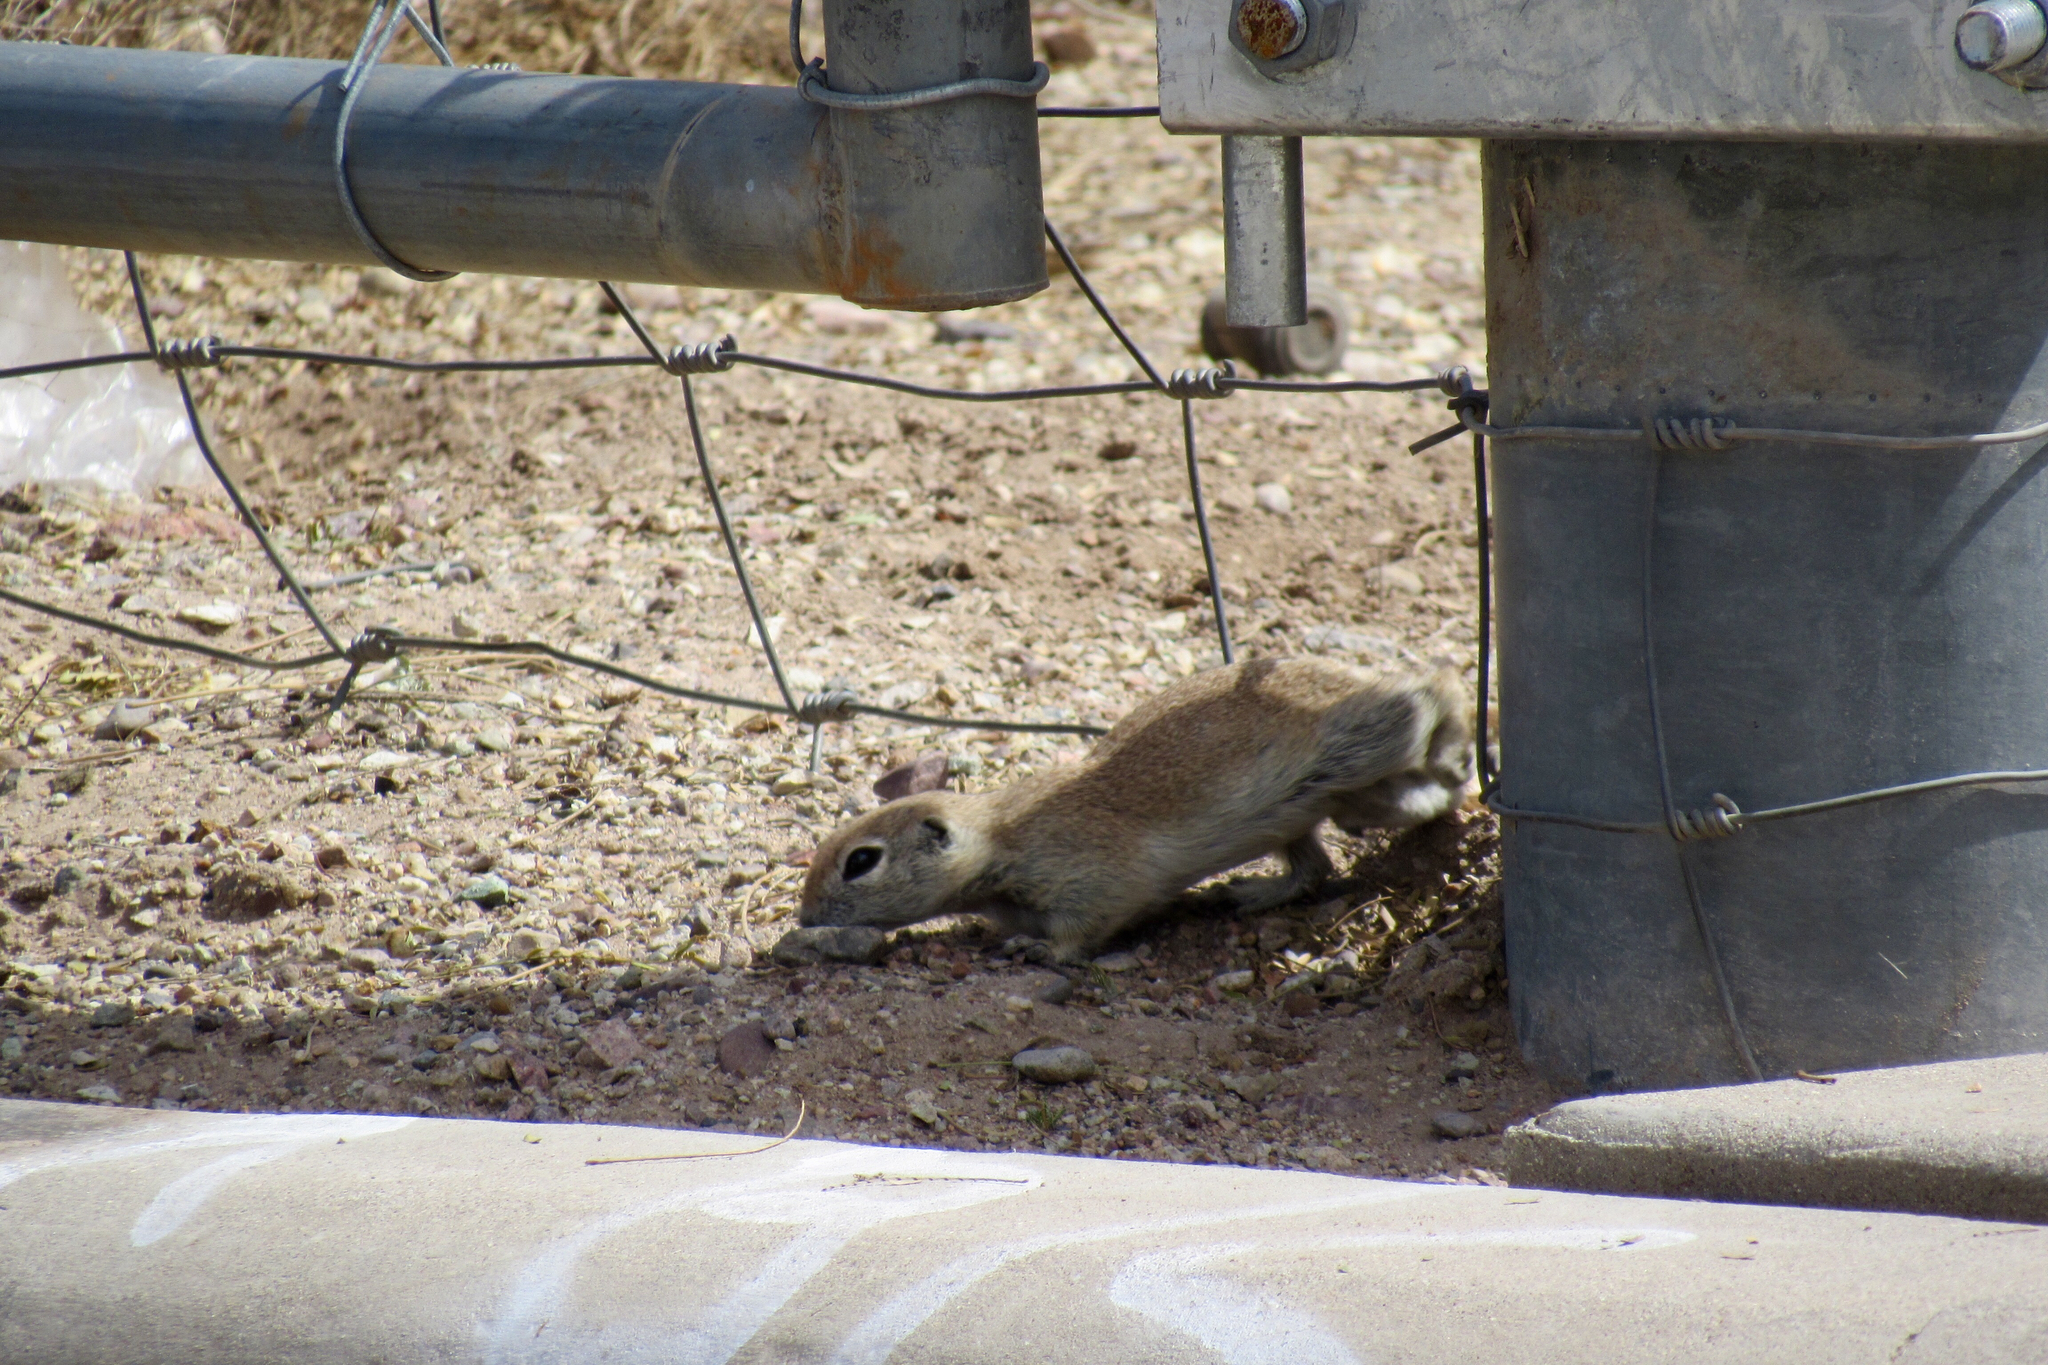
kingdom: Animalia
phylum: Chordata
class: Mammalia
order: Rodentia
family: Sciuridae
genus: Xerospermophilus
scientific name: Xerospermophilus tereticaudus
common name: Round-tailed ground squirrel
